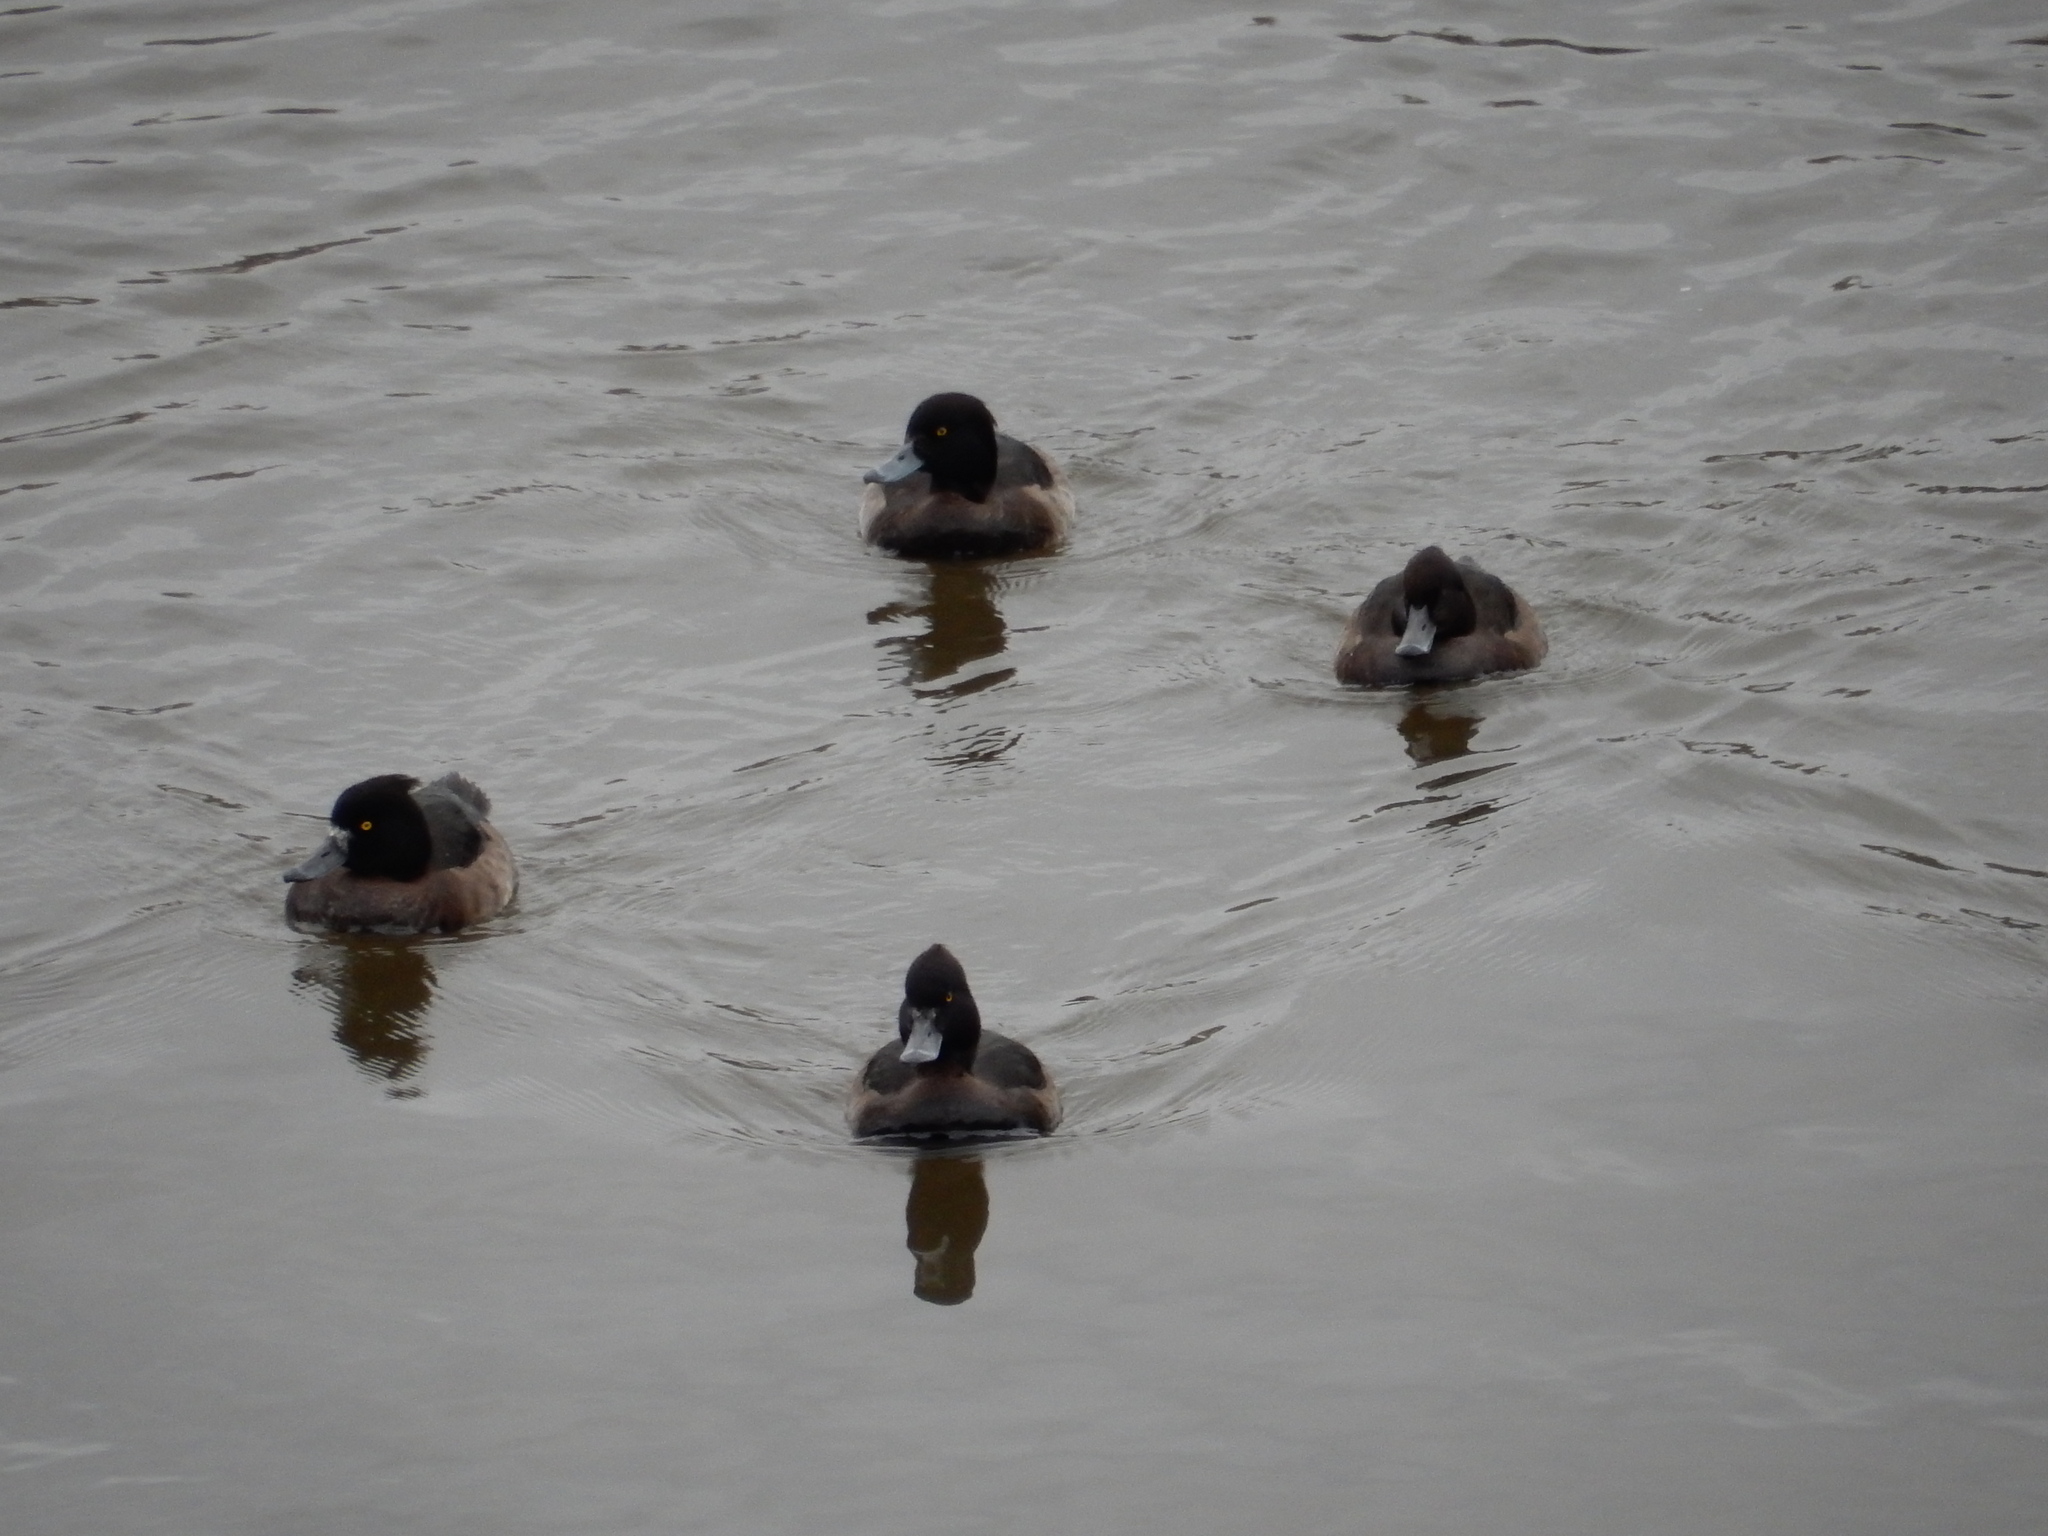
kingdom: Animalia
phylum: Chordata
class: Aves
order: Anseriformes
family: Anatidae
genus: Aythya
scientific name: Aythya fuligula
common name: Tufted duck
